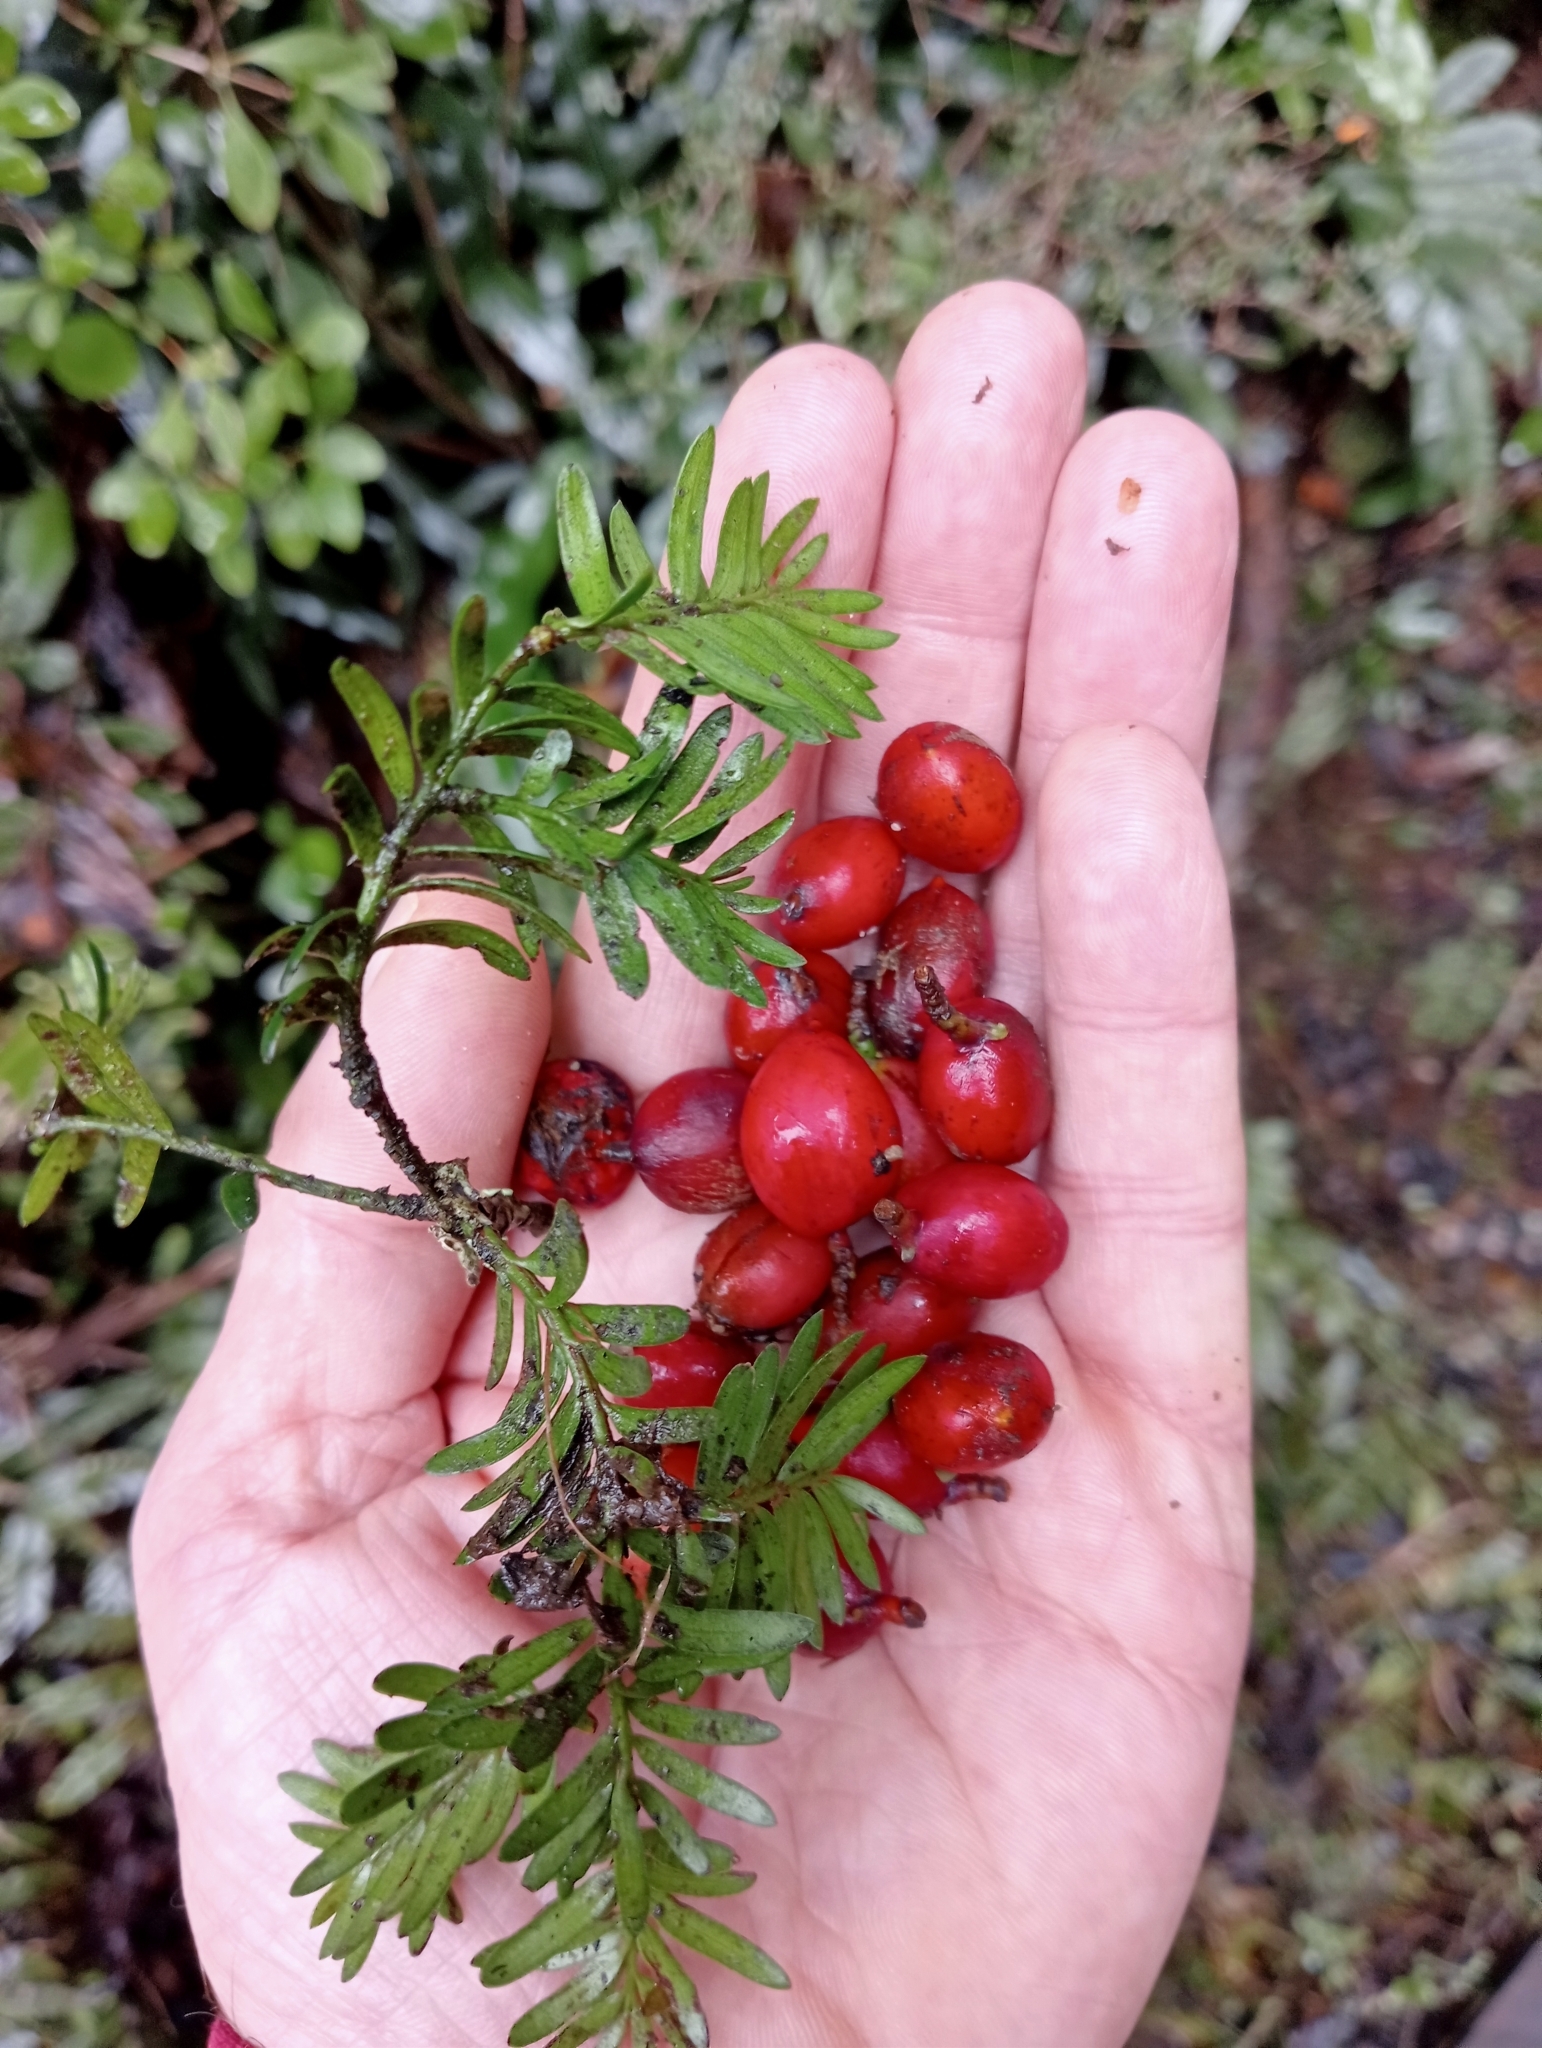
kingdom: Plantae
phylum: Tracheophyta
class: Pinopsida
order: Pinales
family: Podocarpaceae
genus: Prumnopitys
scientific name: Prumnopitys ferruginea
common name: Brown pine
